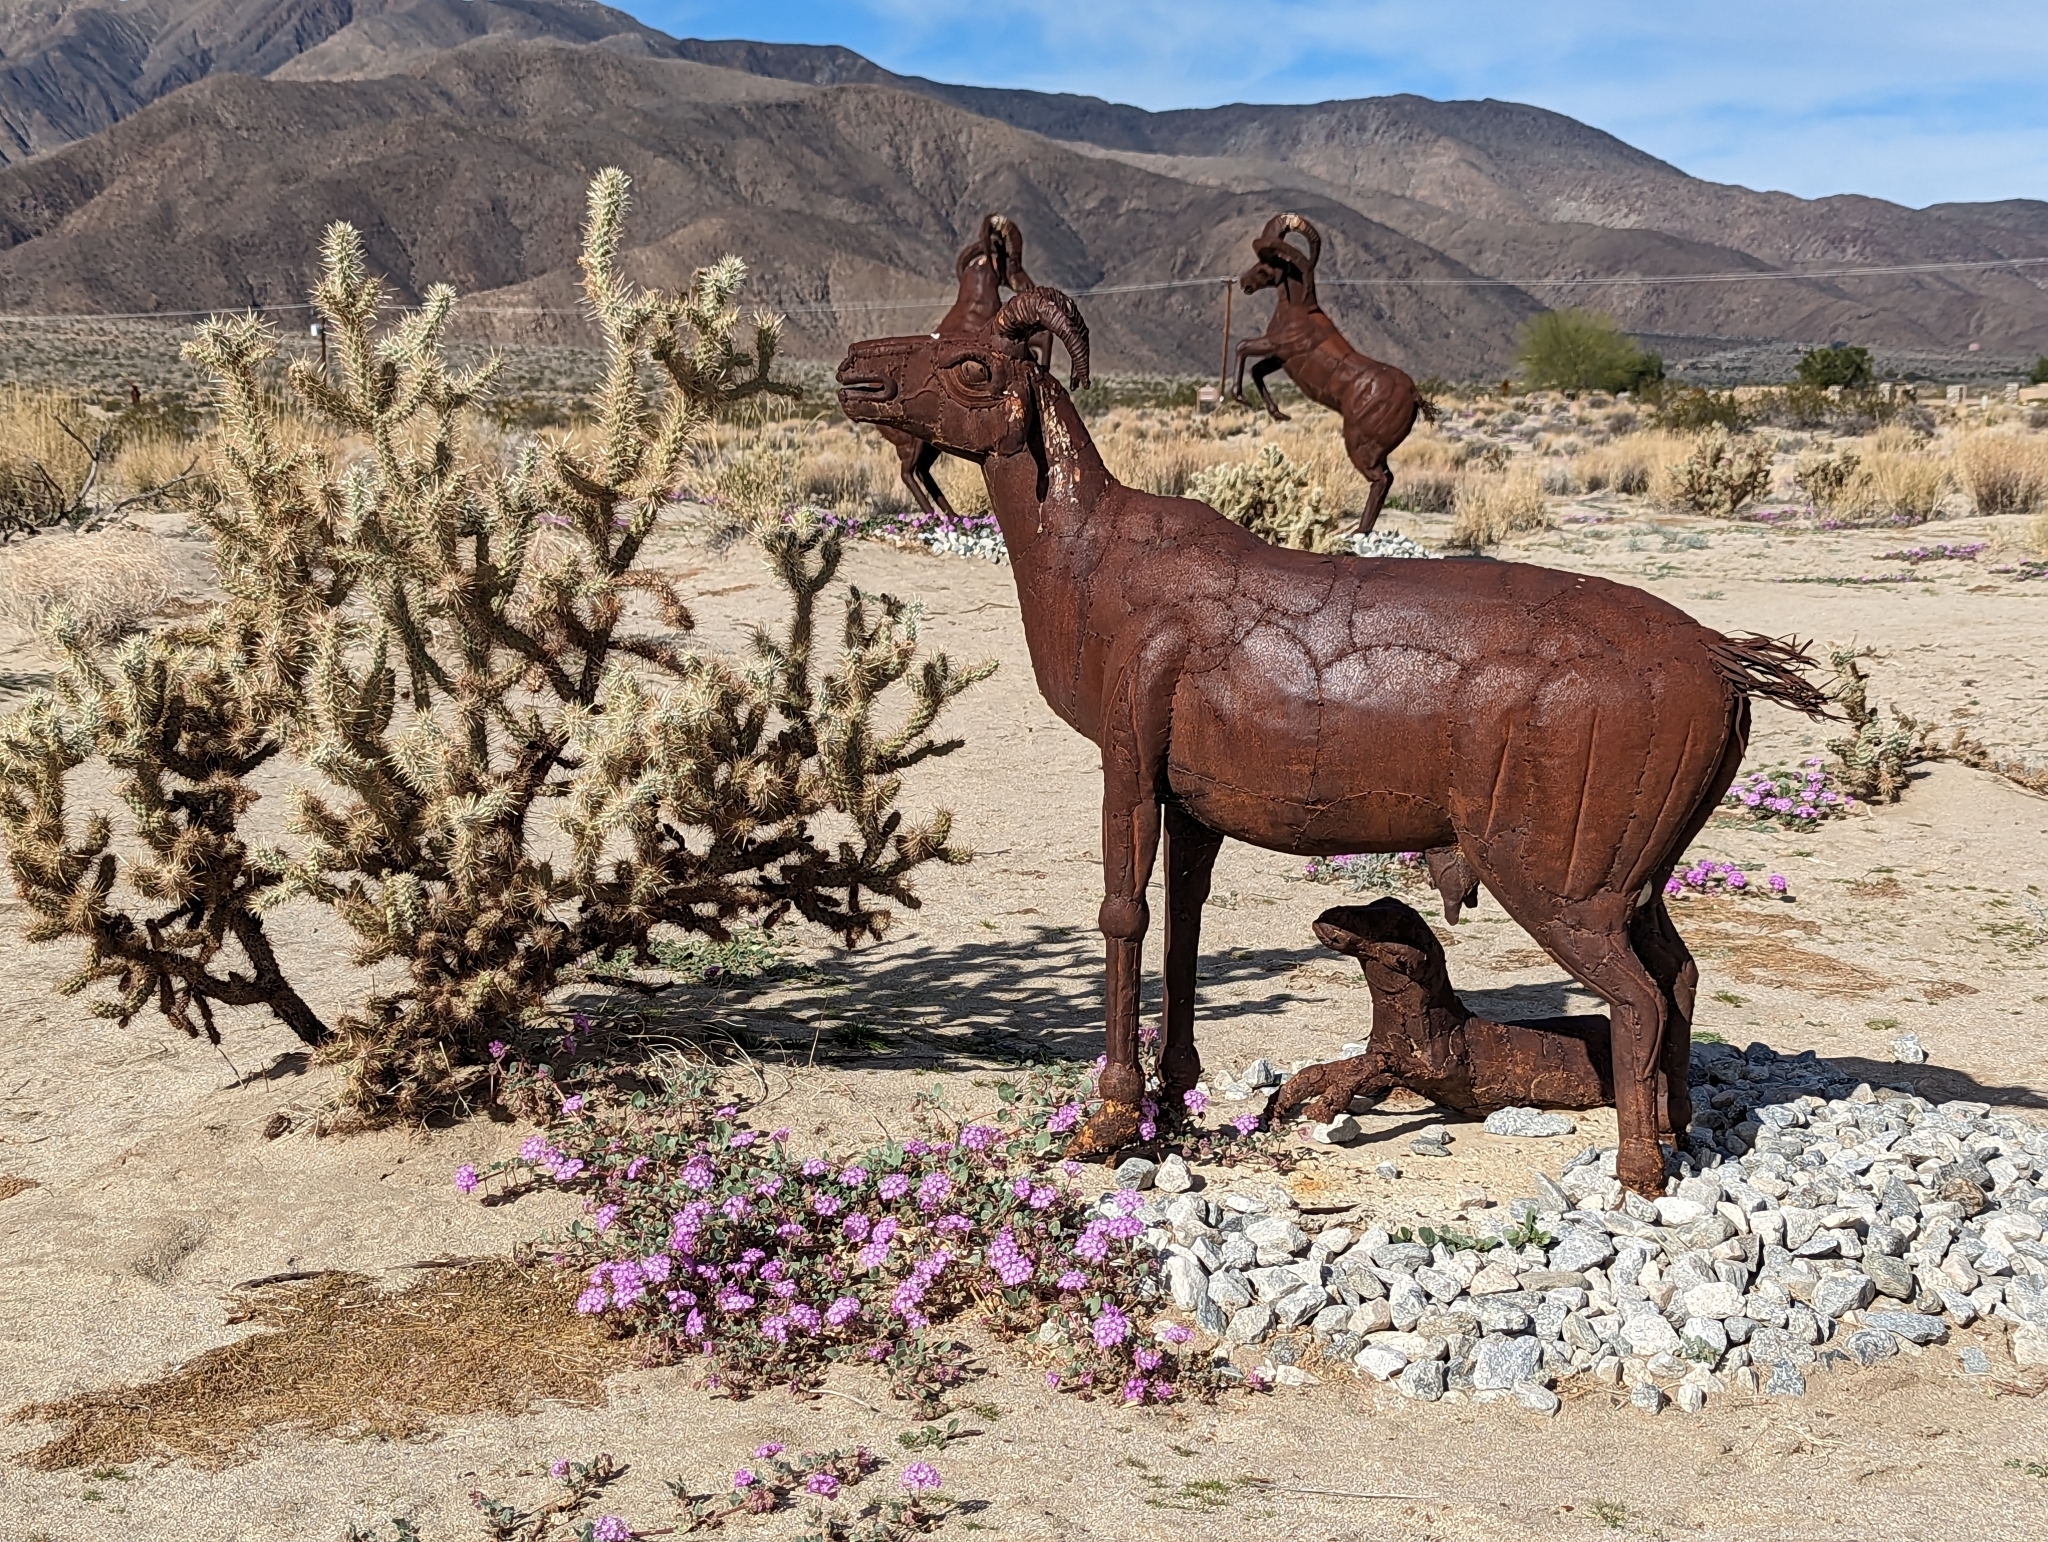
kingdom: Plantae
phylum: Tracheophyta
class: Magnoliopsida
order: Caryophyllales
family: Cactaceae
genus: Cylindropuntia
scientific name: Cylindropuntia ganderi
